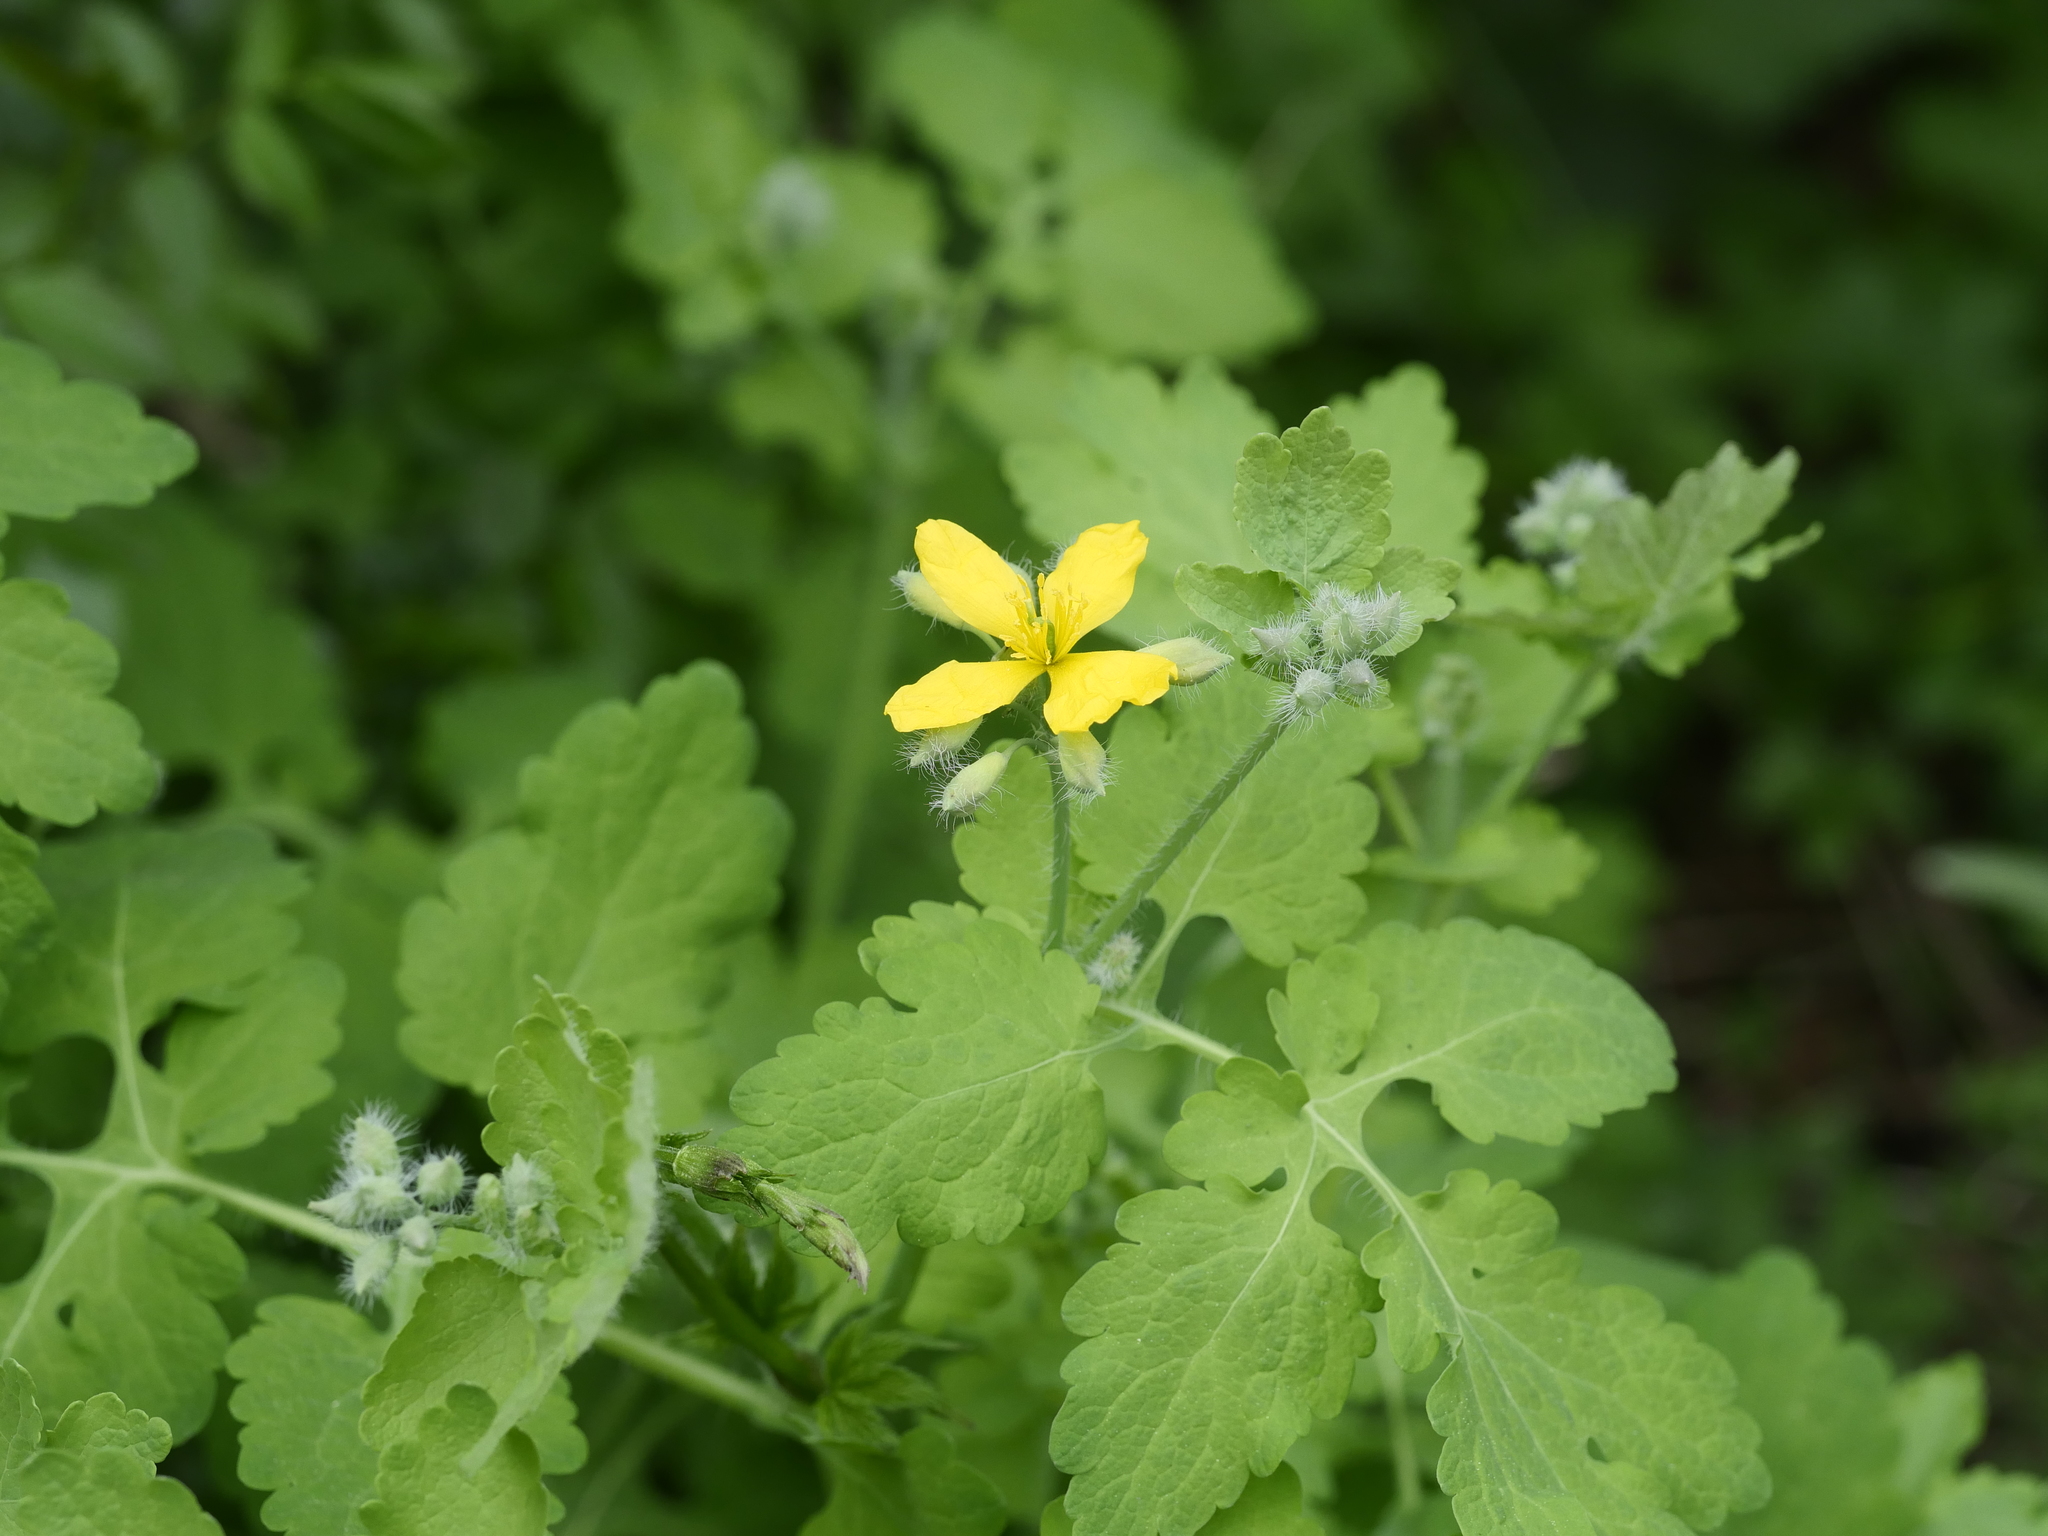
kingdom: Plantae
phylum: Tracheophyta
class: Magnoliopsida
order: Ranunculales
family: Papaveraceae
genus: Chelidonium
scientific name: Chelidonium majus
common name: Greater celandine
